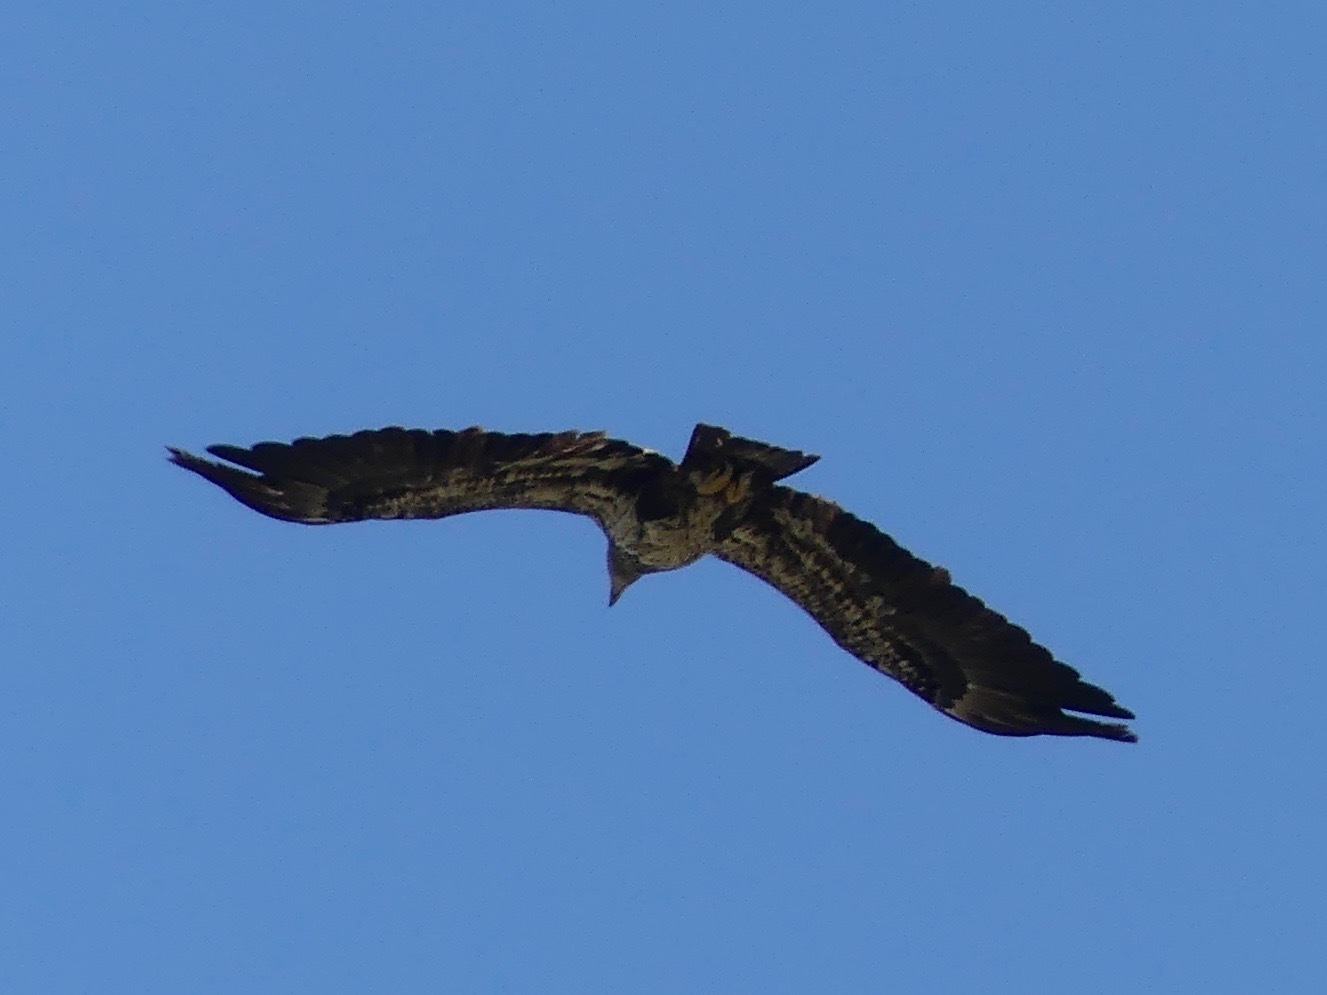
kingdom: Animalia
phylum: Chordata
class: Aves
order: Accipitriformes
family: Accipitridae
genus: Haliaeetus
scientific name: Haliaeetus leucocephalus
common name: Bald eagle
